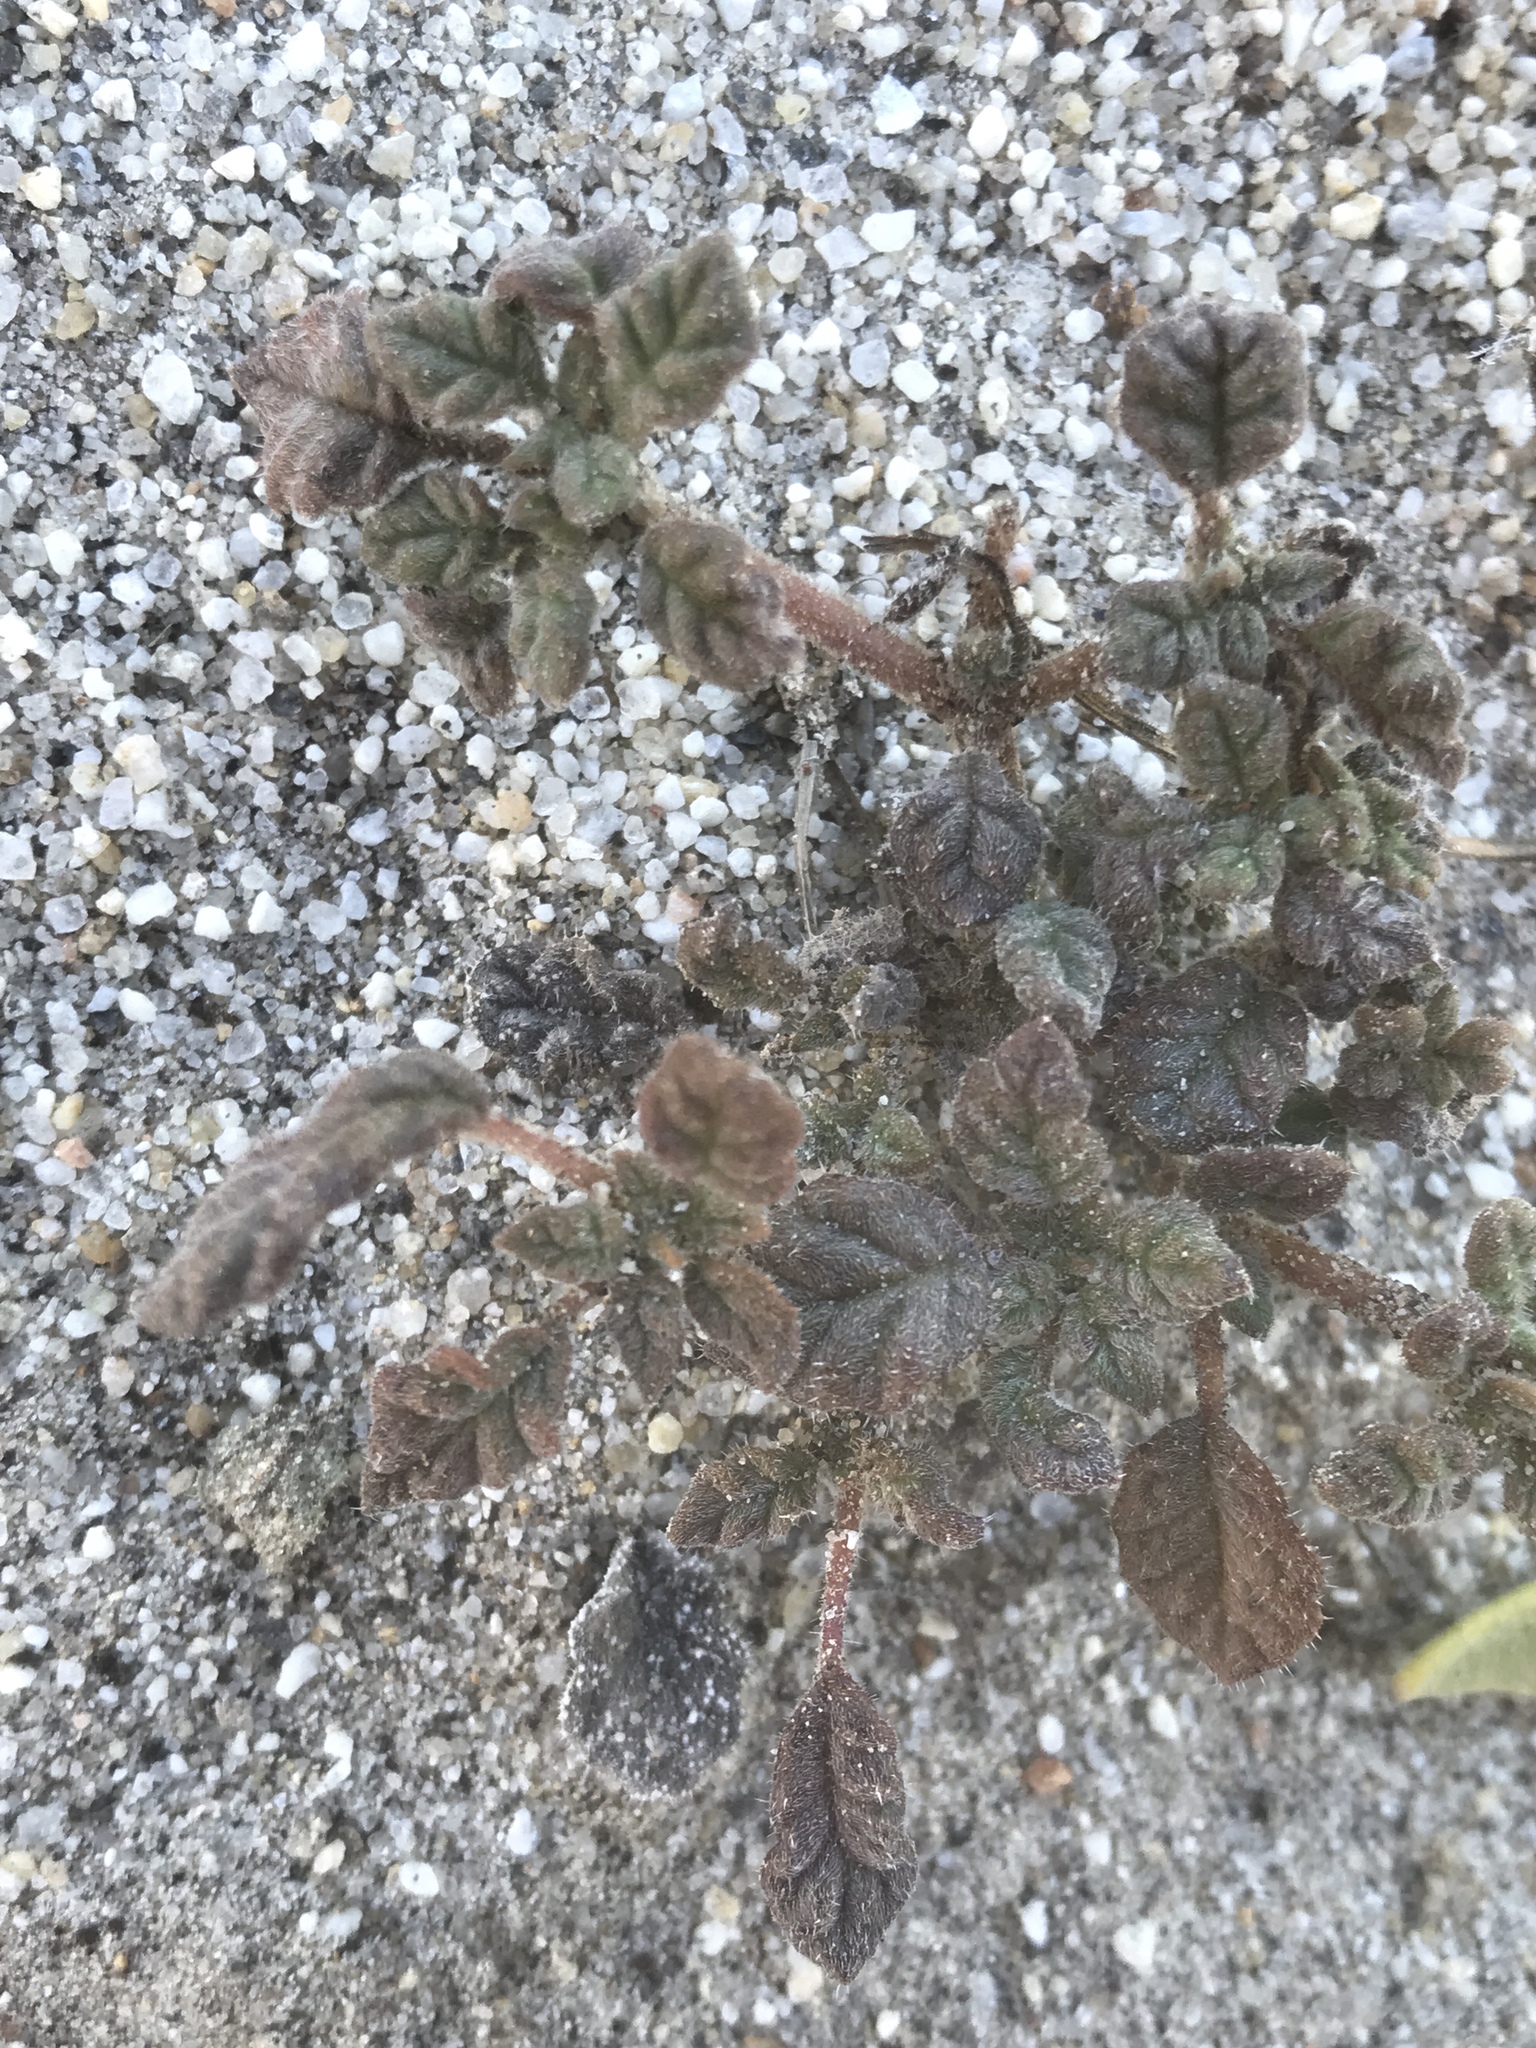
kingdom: Plantae
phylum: Tracheophyta
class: Magnoliopsida
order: Boraginales
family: Ehretiaceae
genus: Tiquilia
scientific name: Tiquilia palmeri
